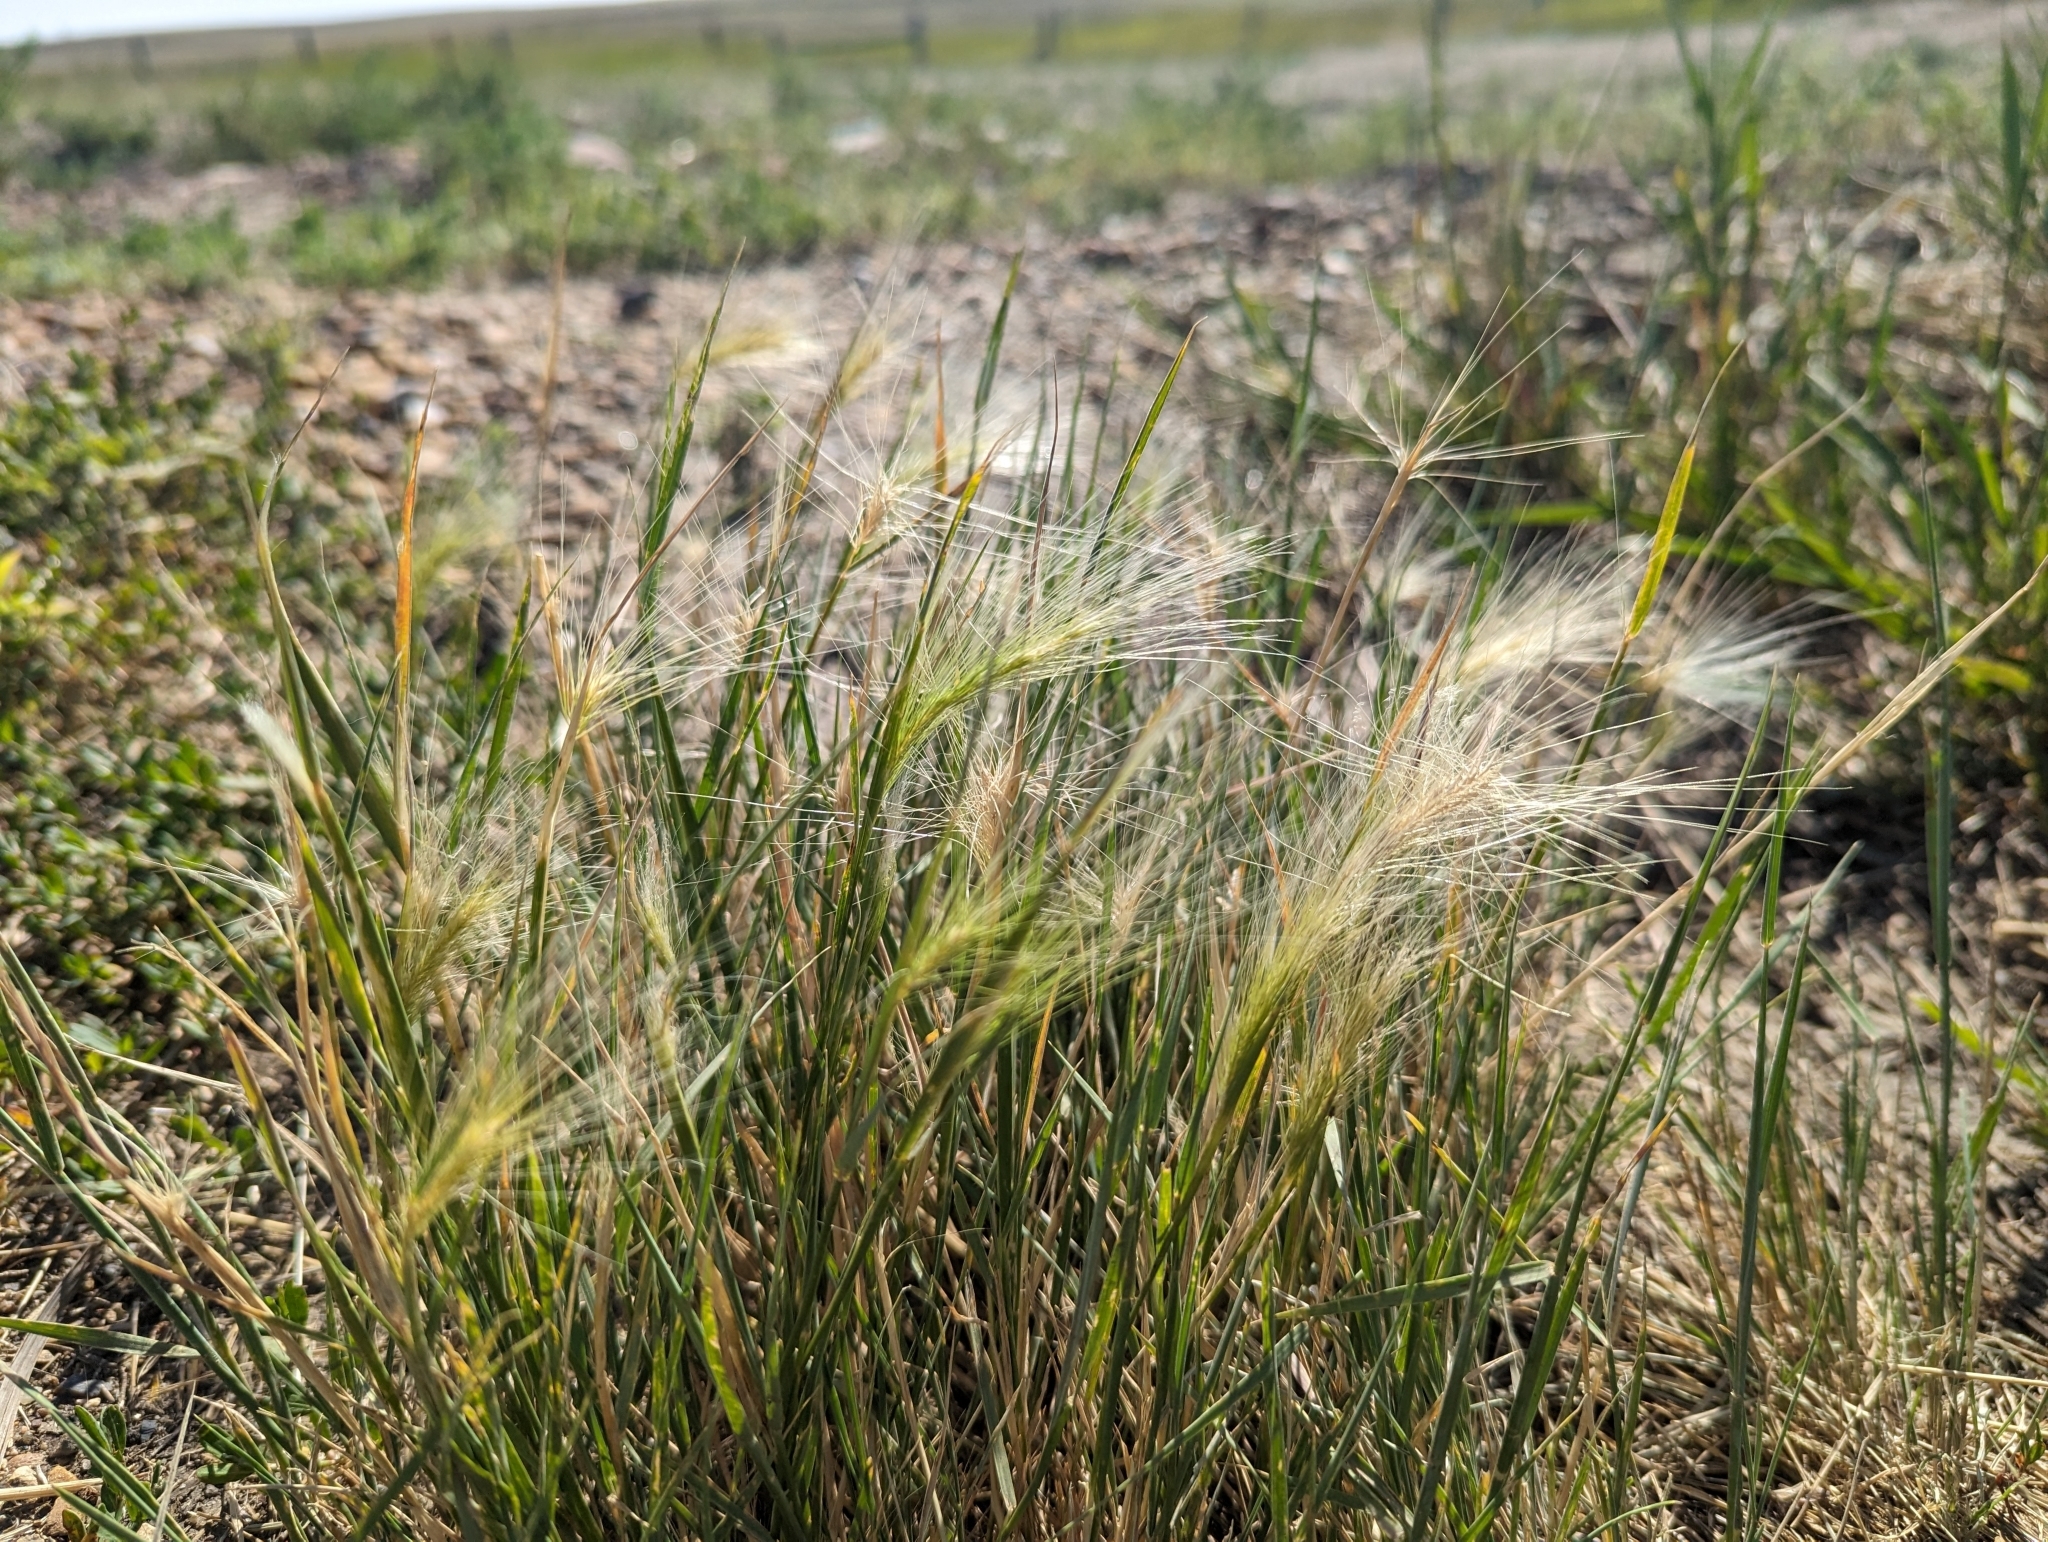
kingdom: Plantae
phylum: Tracheophyta
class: Liliopsida
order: Poales
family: Poaceae
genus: Hordeum
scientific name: Hordeum jubatum
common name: Foxtail barley
